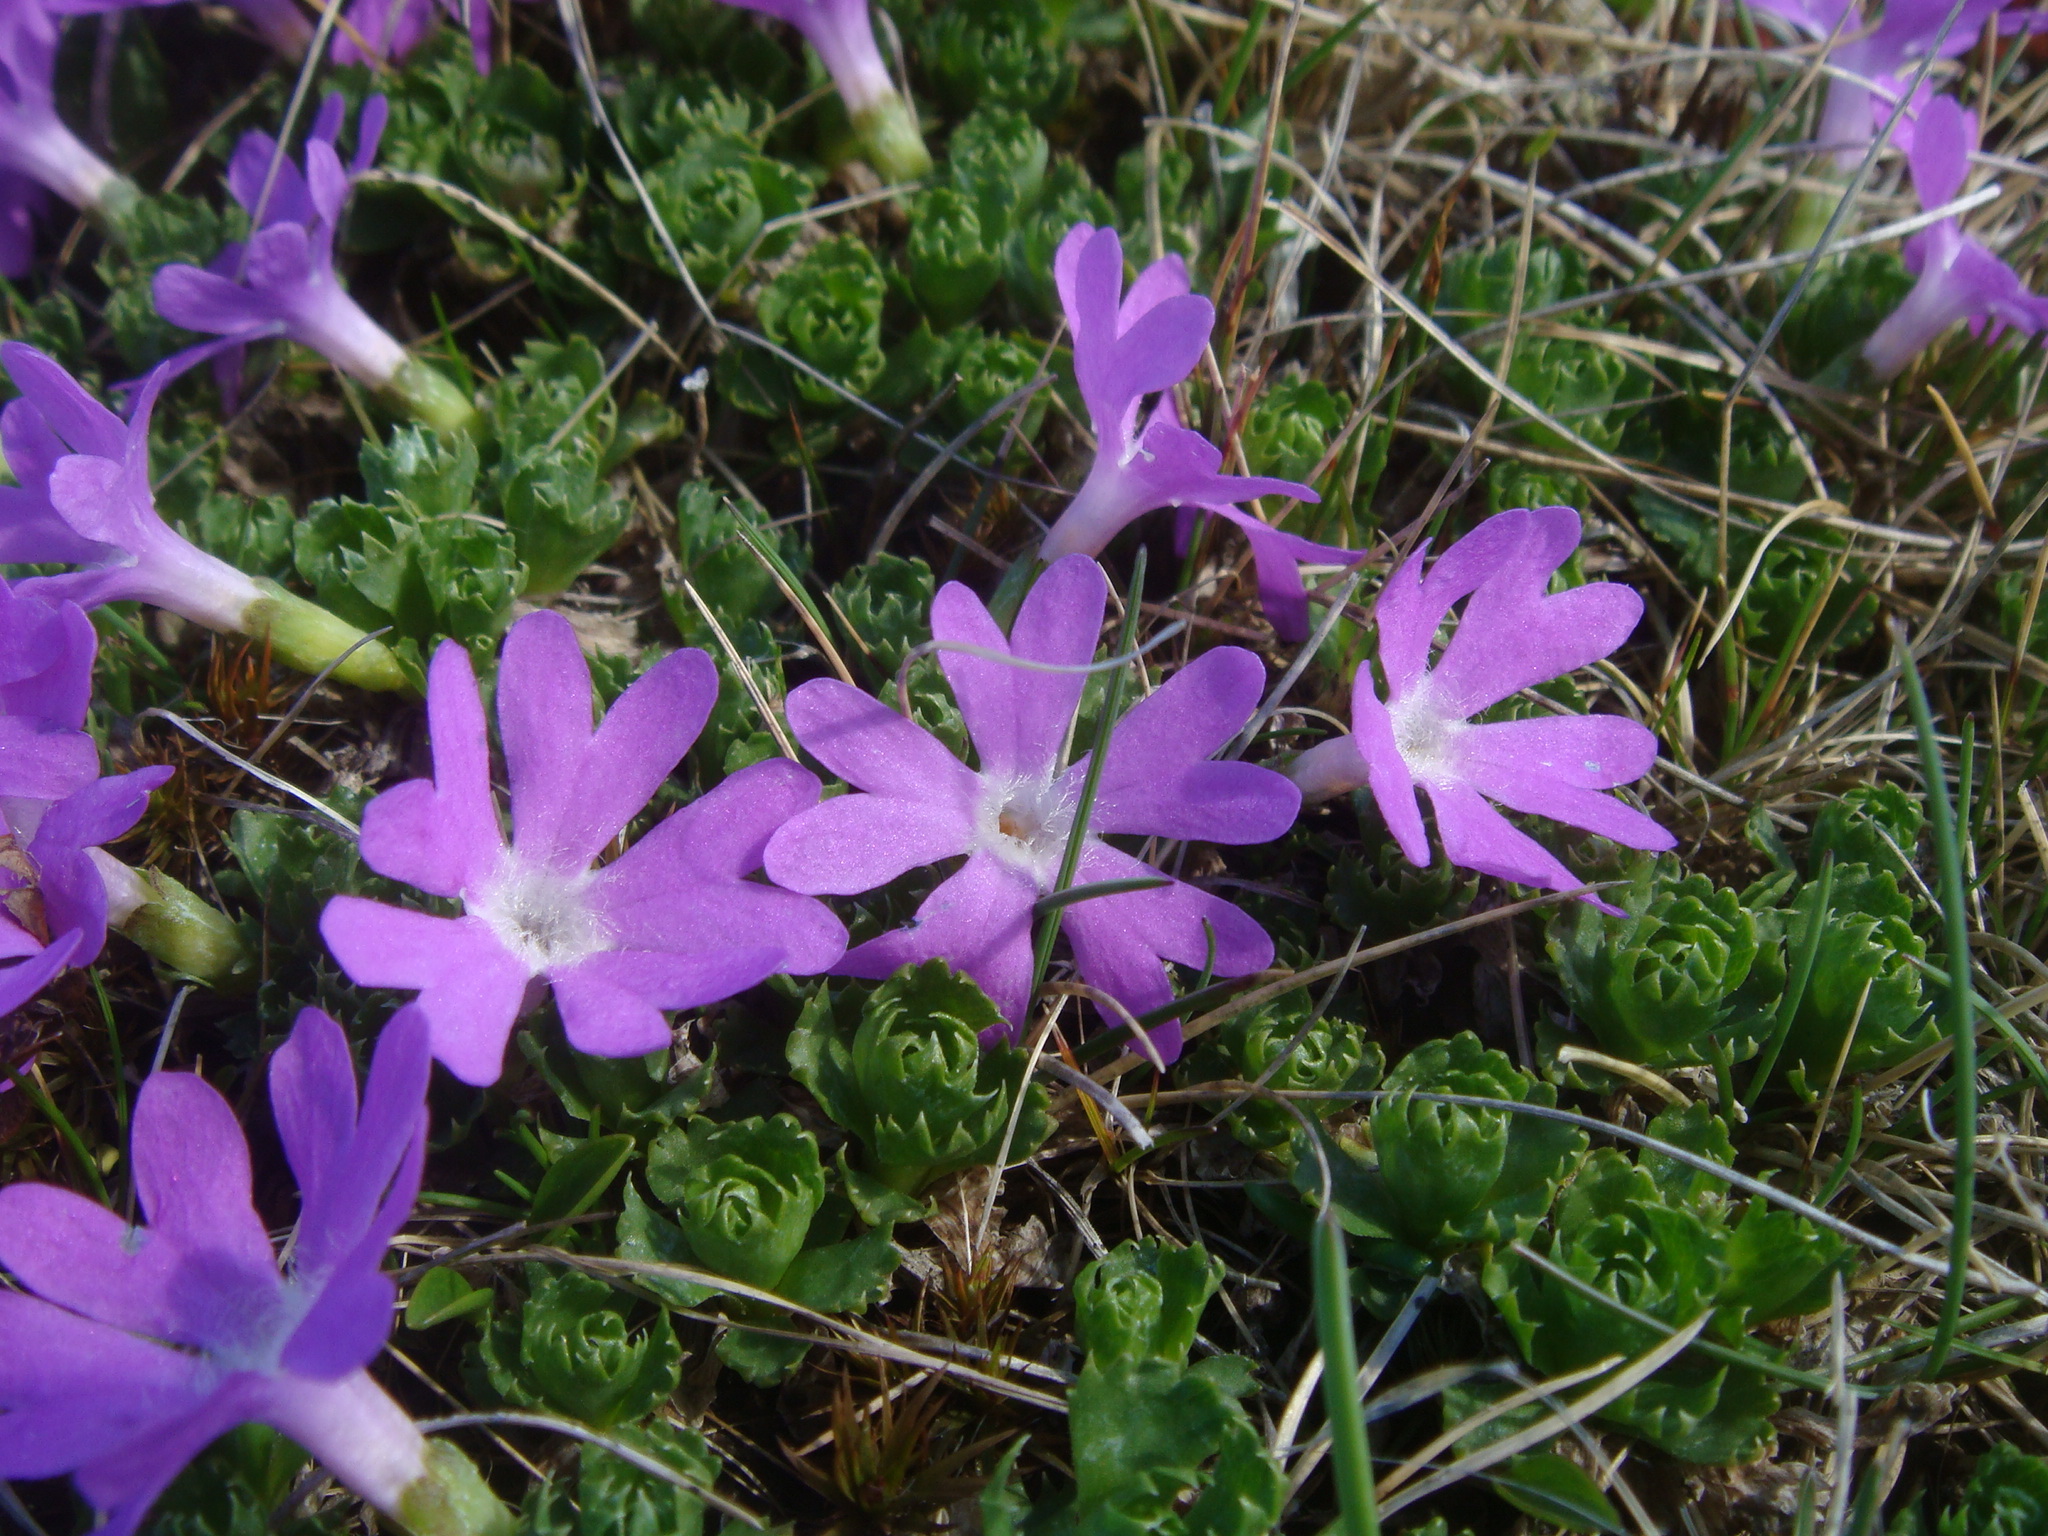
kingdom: Plantae
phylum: Tracheophyta
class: Magnoliopsida
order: Ericales
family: Primulaceae
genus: Primula
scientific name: Primula minima
